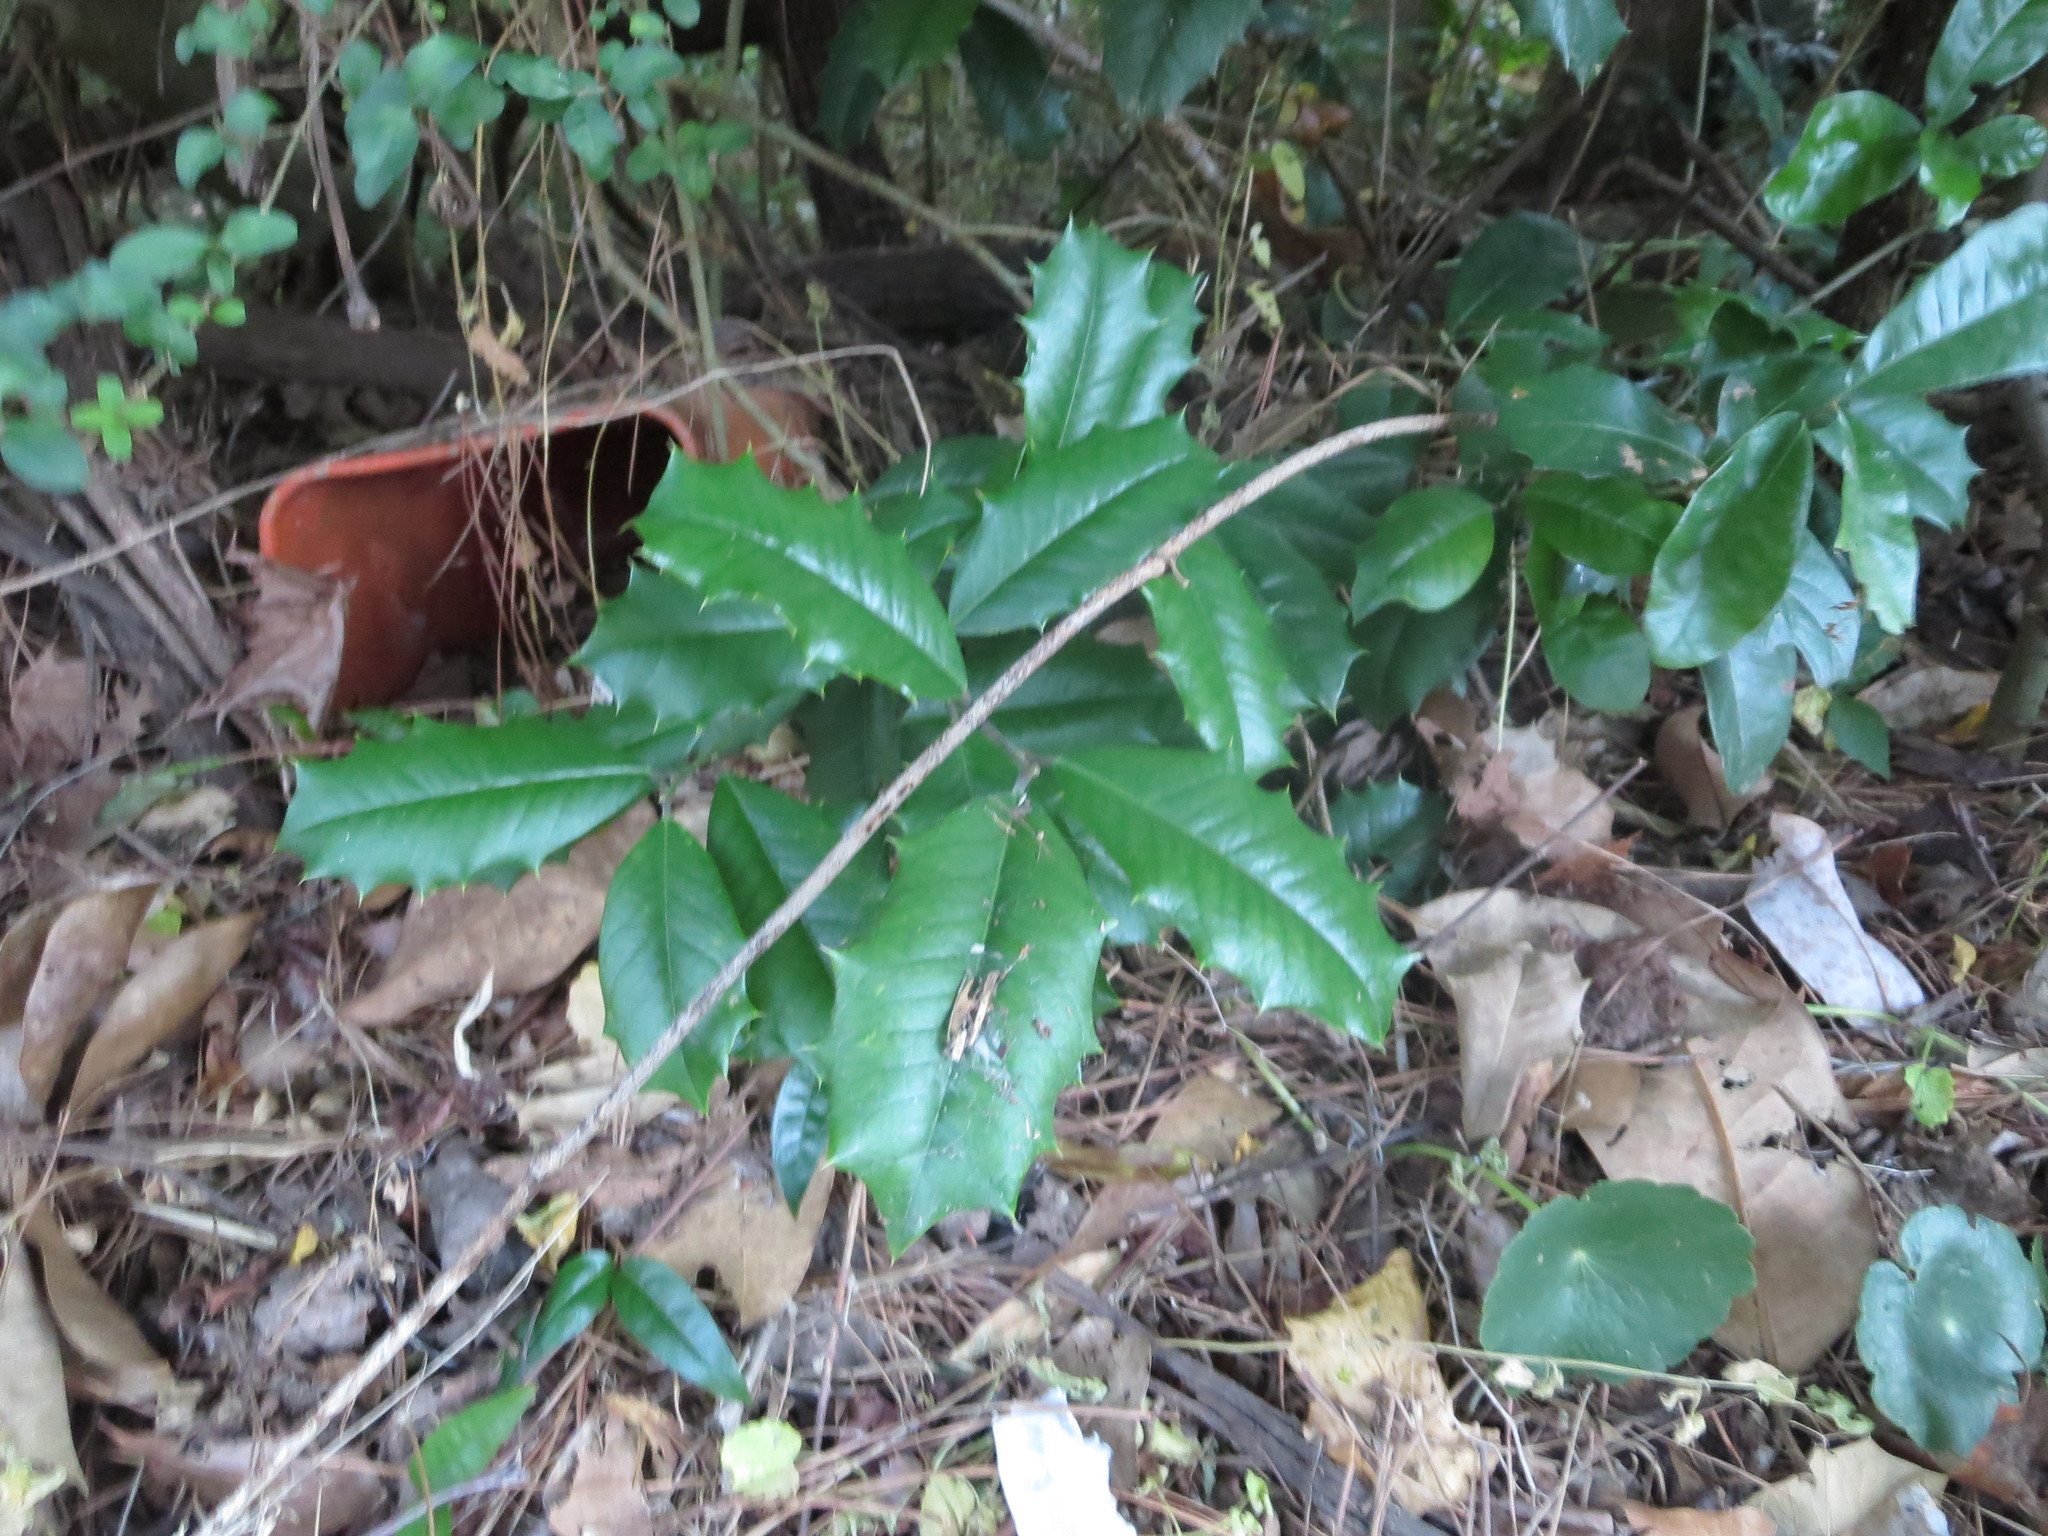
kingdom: Plantae
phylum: Tracheophyta
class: Magnoliopsida
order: Aquifoliales
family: Aquifoliaceae
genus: Ilex
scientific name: Ilex opaca
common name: American holly
